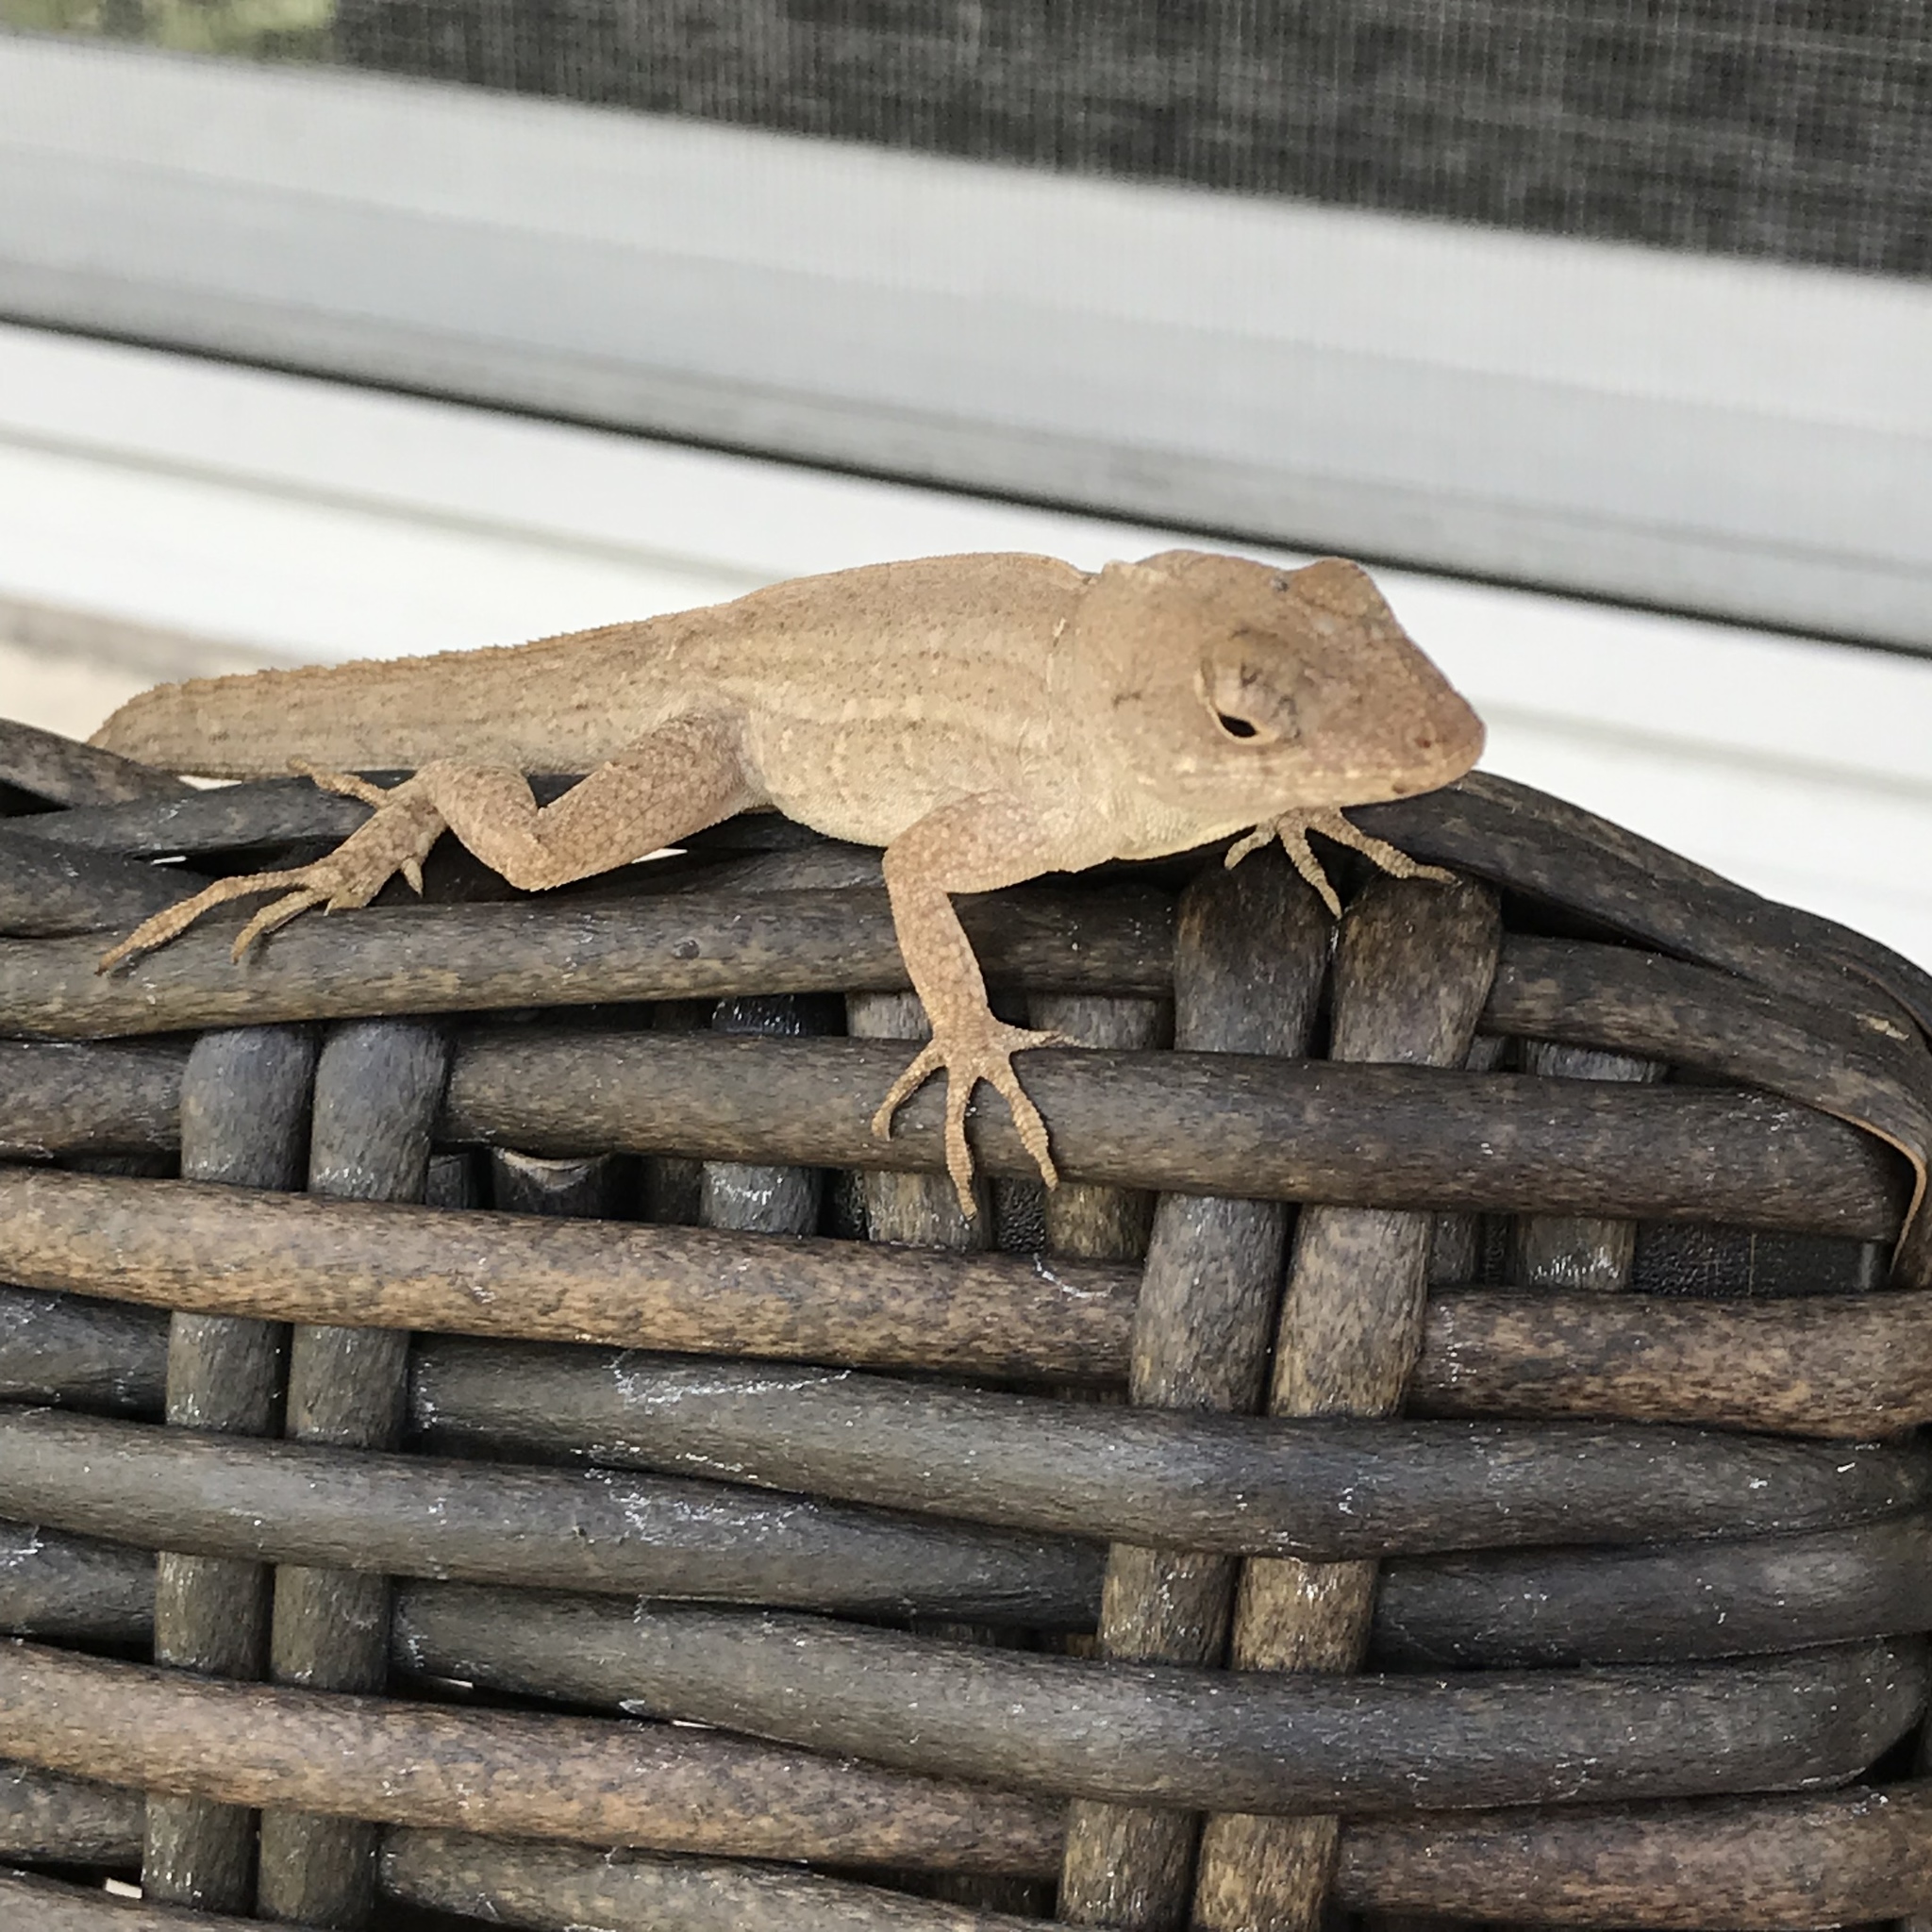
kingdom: Animalia
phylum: Chordata
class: Squamata
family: Dactyloidae
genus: Anolis
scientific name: Anolis sagrei
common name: Brown anole
